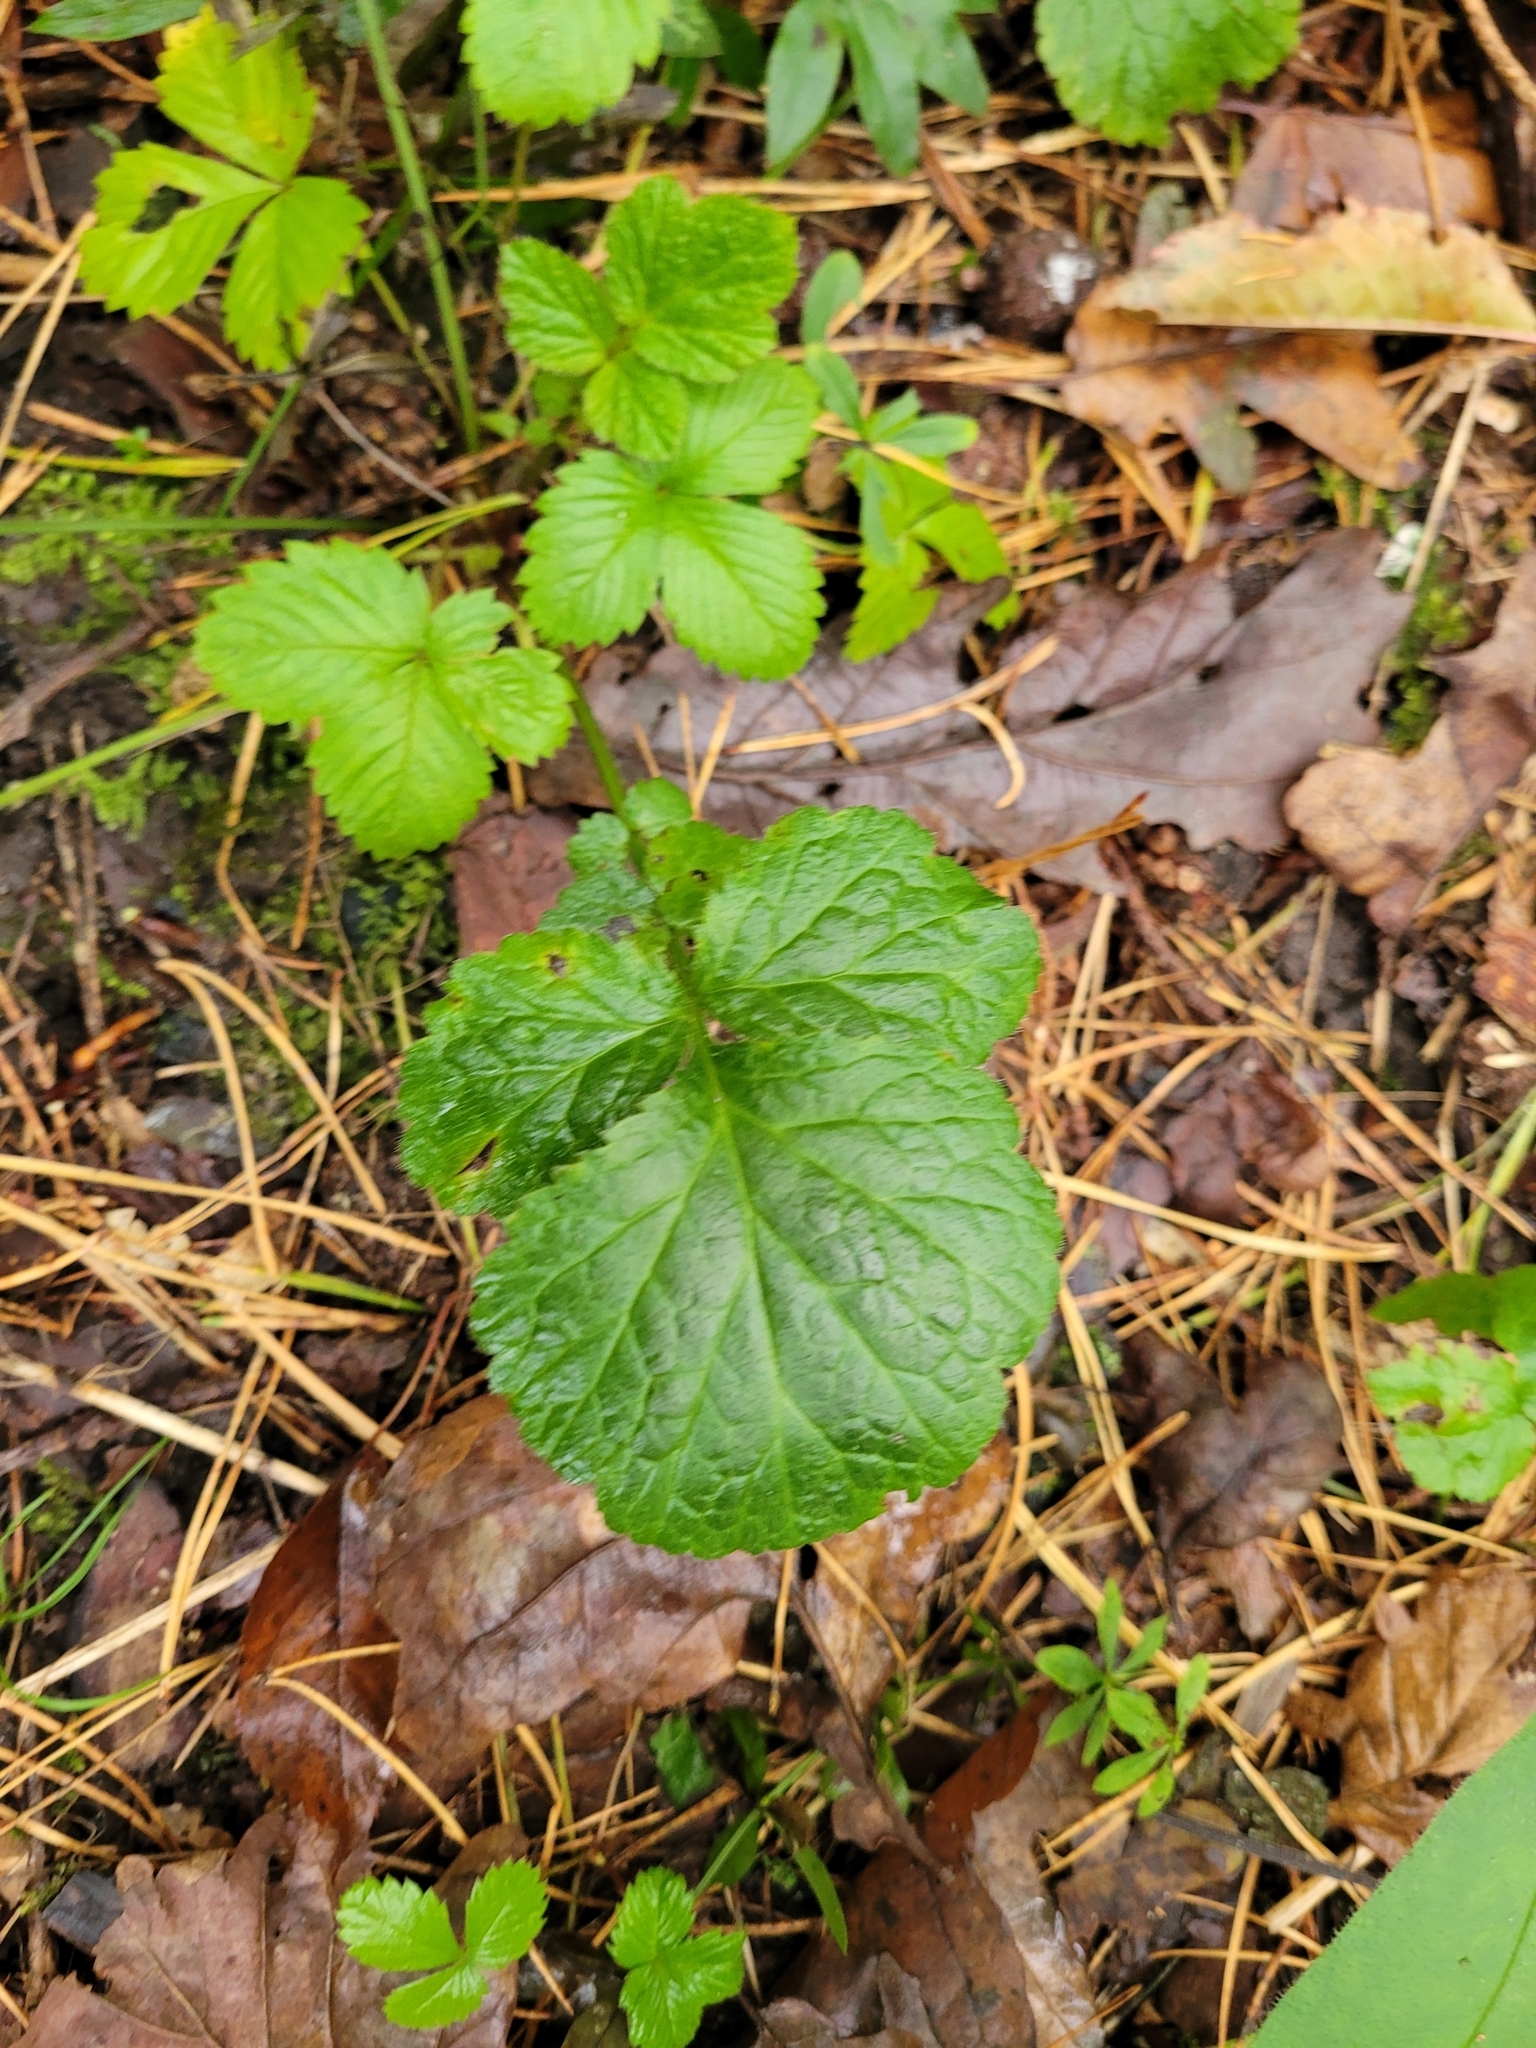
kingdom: Plantae
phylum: Tracheophyta
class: Magnoliopsida
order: Rosales
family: Rosaceae
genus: Geum
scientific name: Geum urbanum
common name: Wood avens
